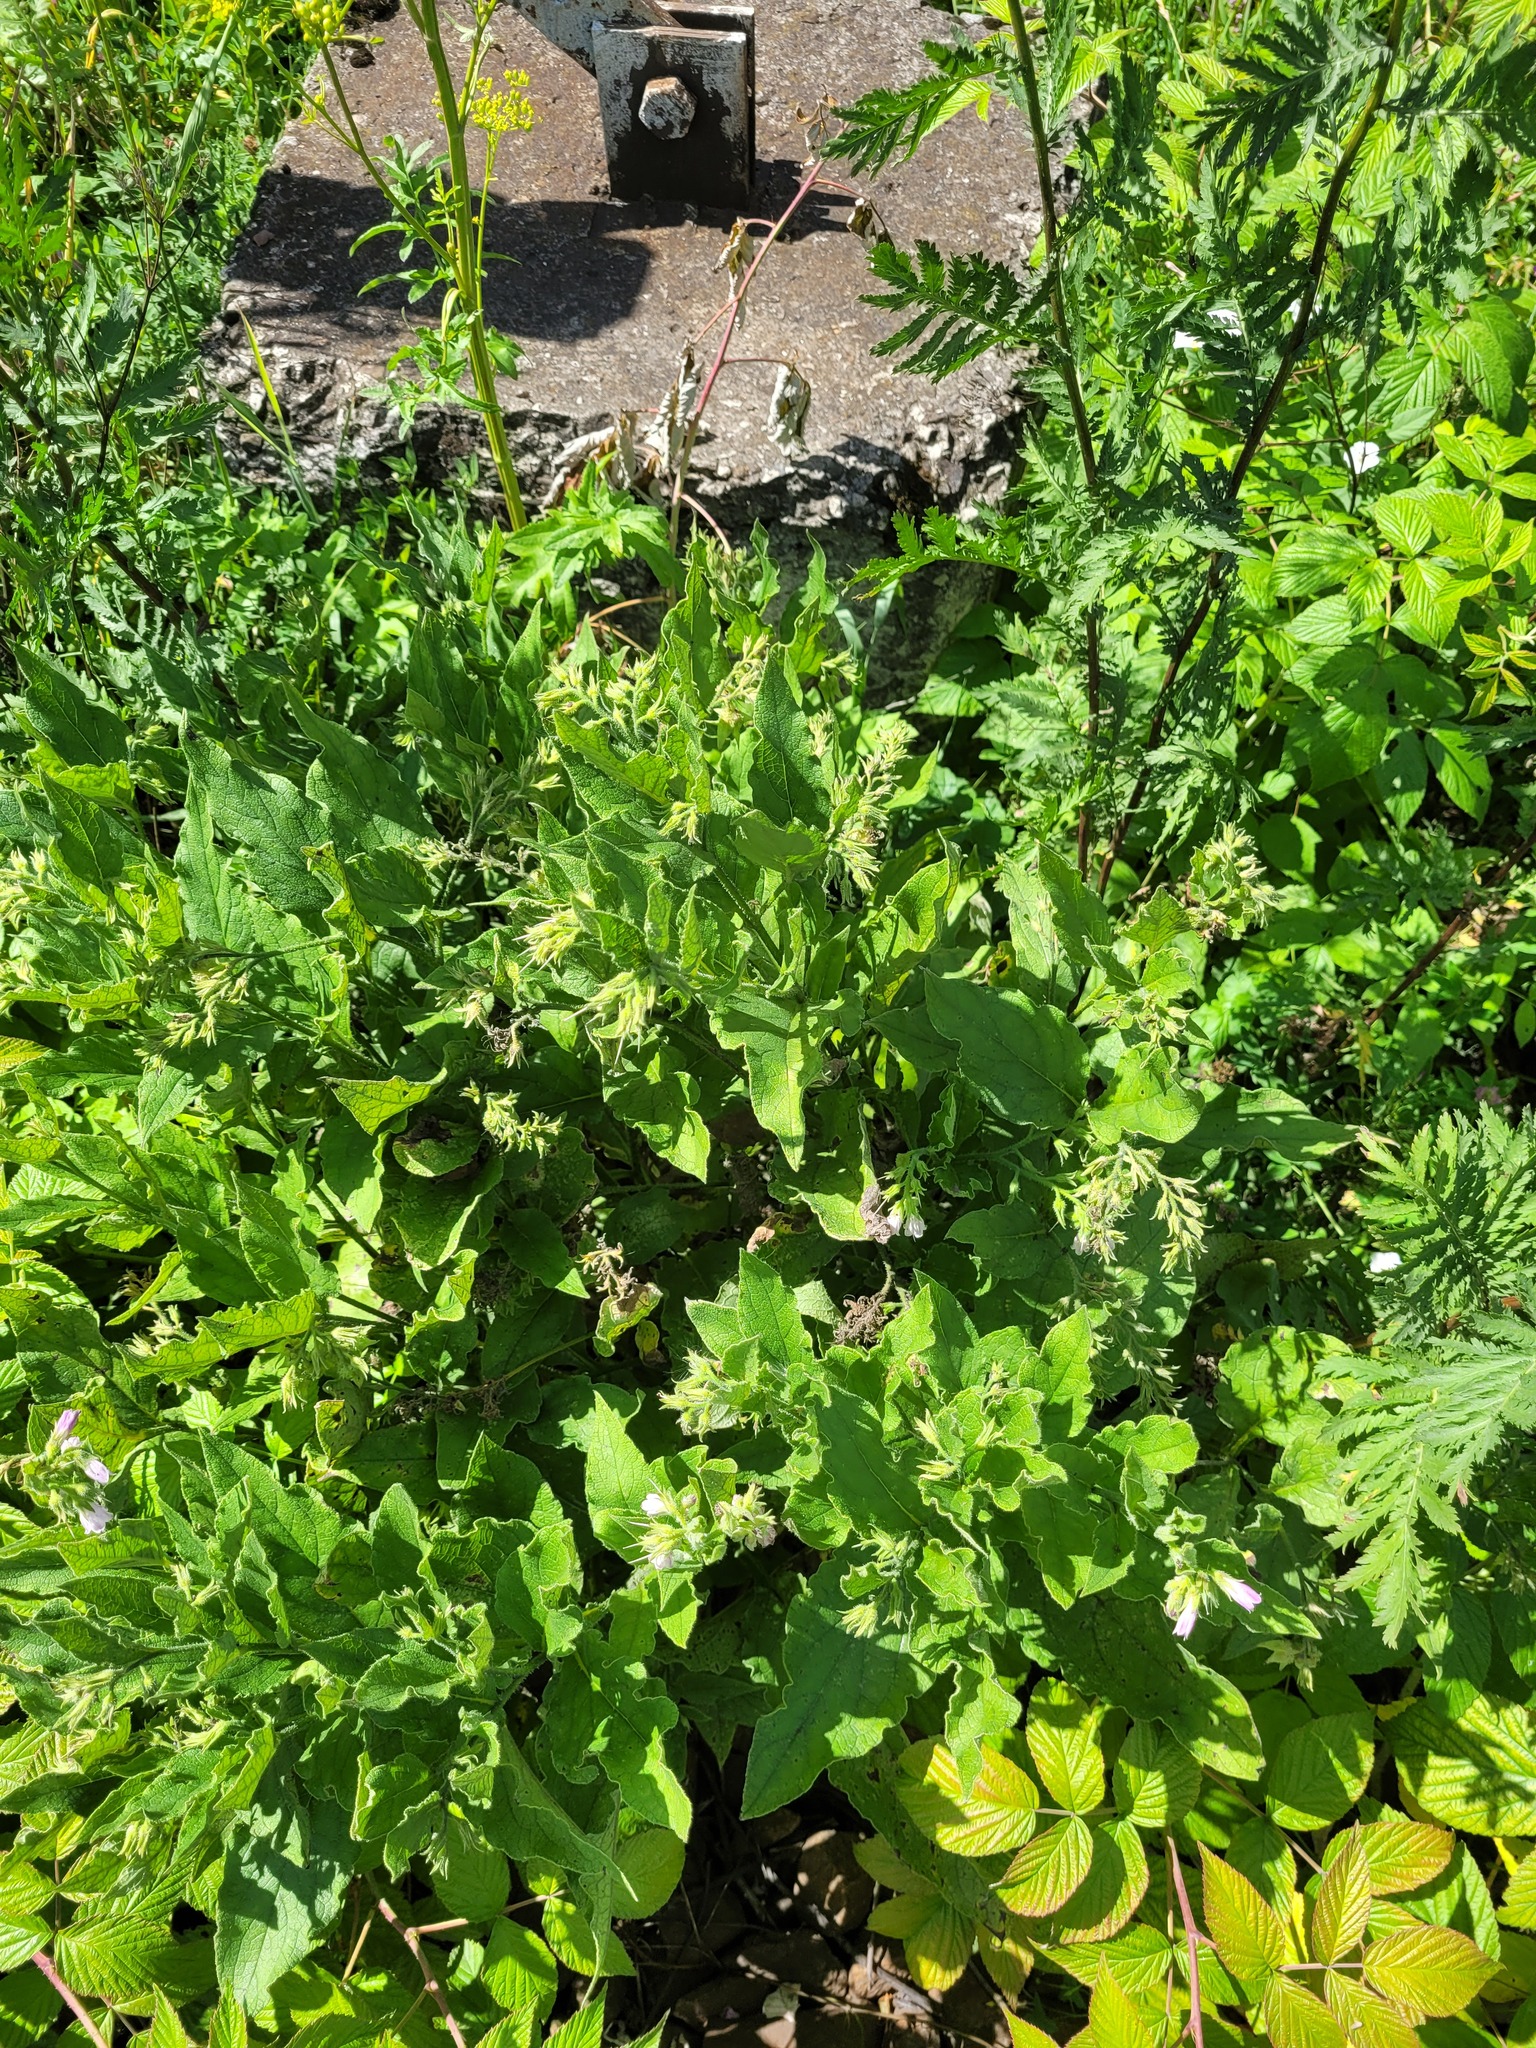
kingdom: Plantae
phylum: Tracheophyta
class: Magnoliopsida
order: Boraginales
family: Boraginaceae
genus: Symphytum
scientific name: Symphytum uplandicum
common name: Russian comfrey
